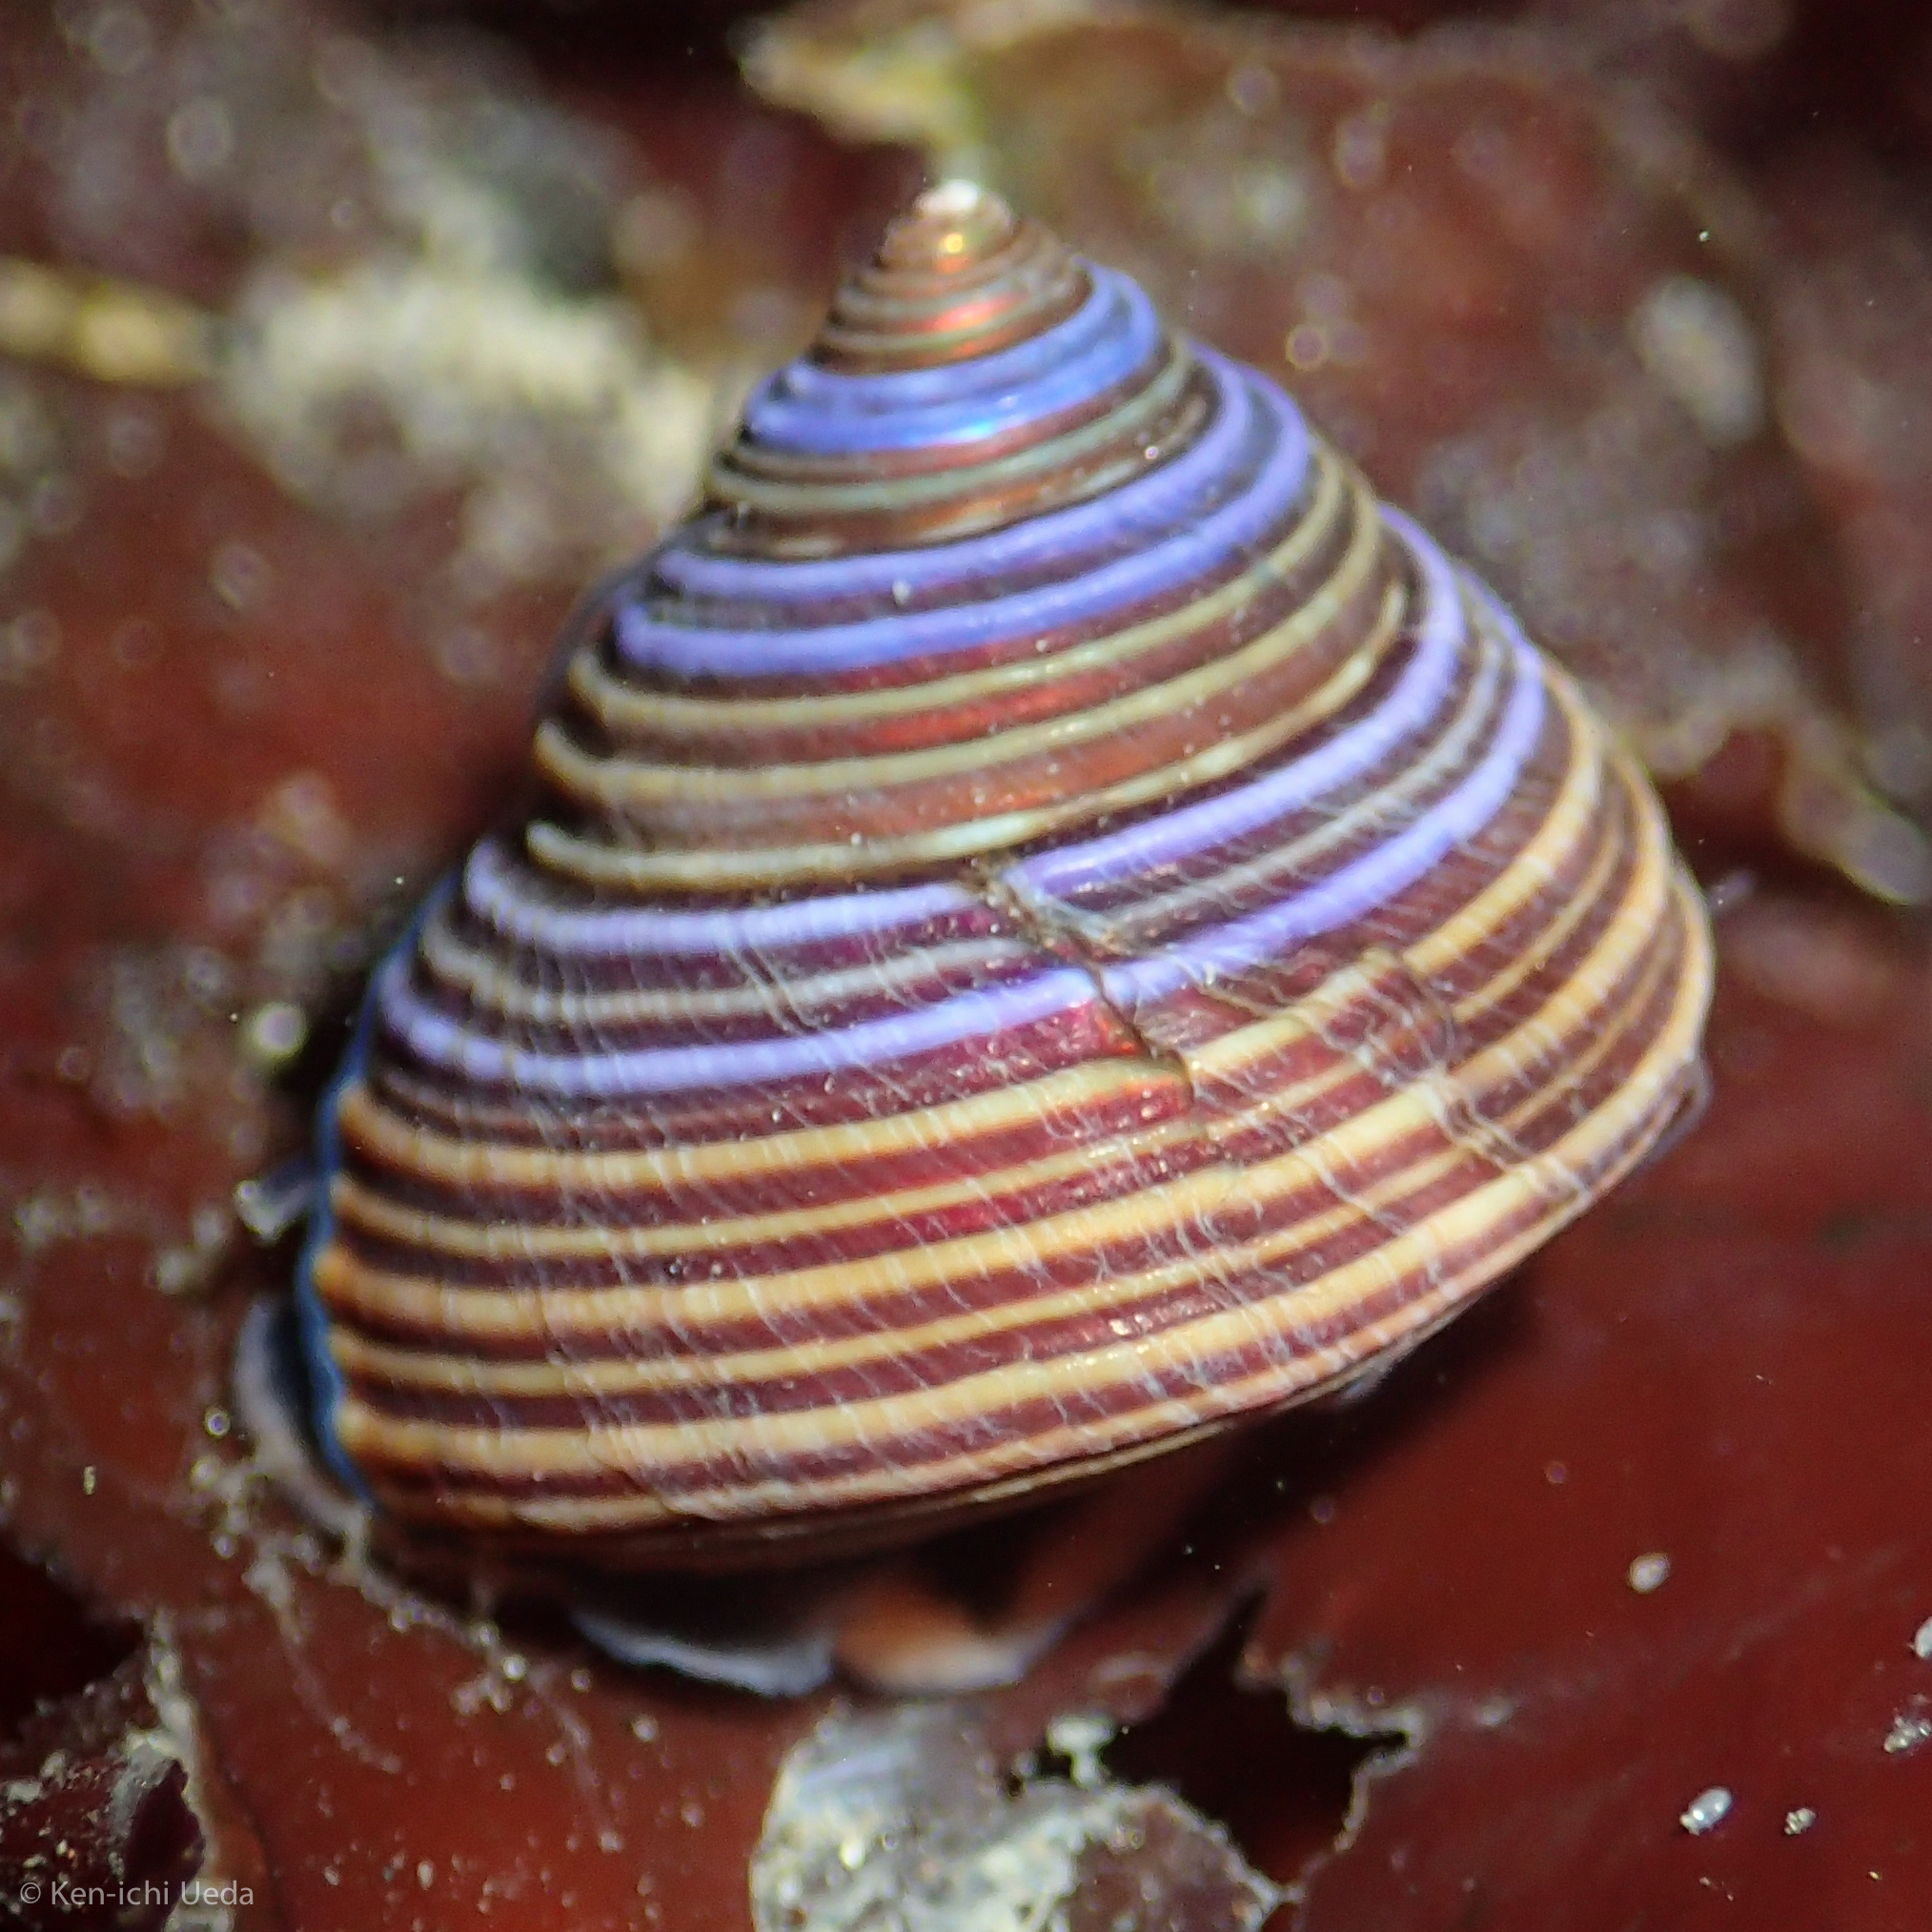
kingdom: Animalia
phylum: Mollusca
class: Gastropoda
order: Trochida
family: Calliostomatidae
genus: Calliostoma
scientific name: Calliostoma ligatum
